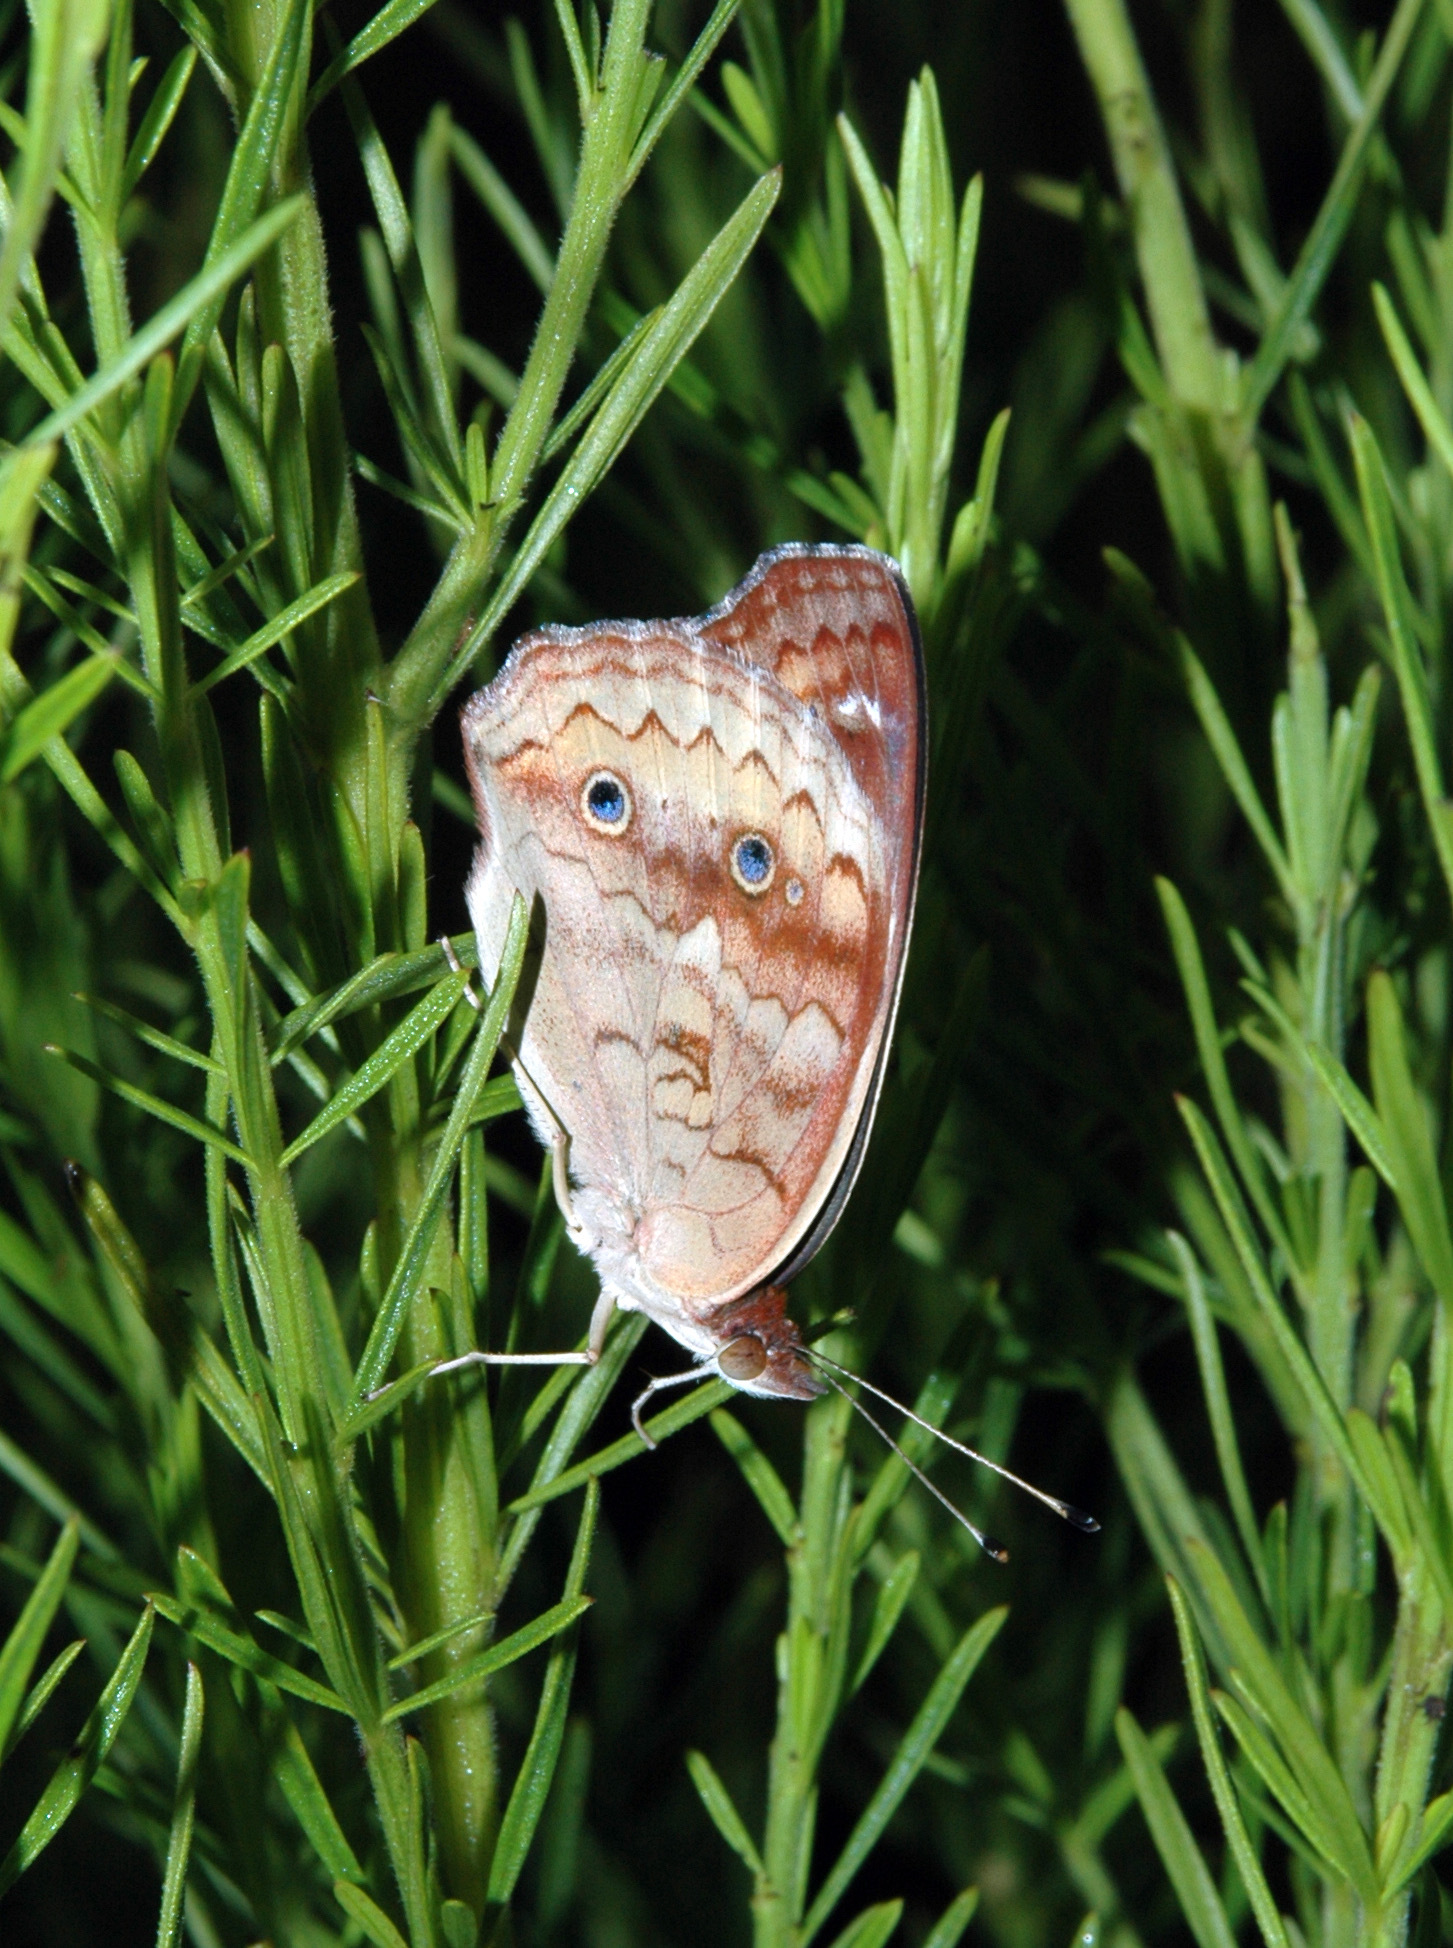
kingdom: Animalia
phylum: Arthropoda
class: Insecta
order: Lepidoptera
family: Nymphalidae
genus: Junonia
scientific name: Junonia coenia
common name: Common buckeye
